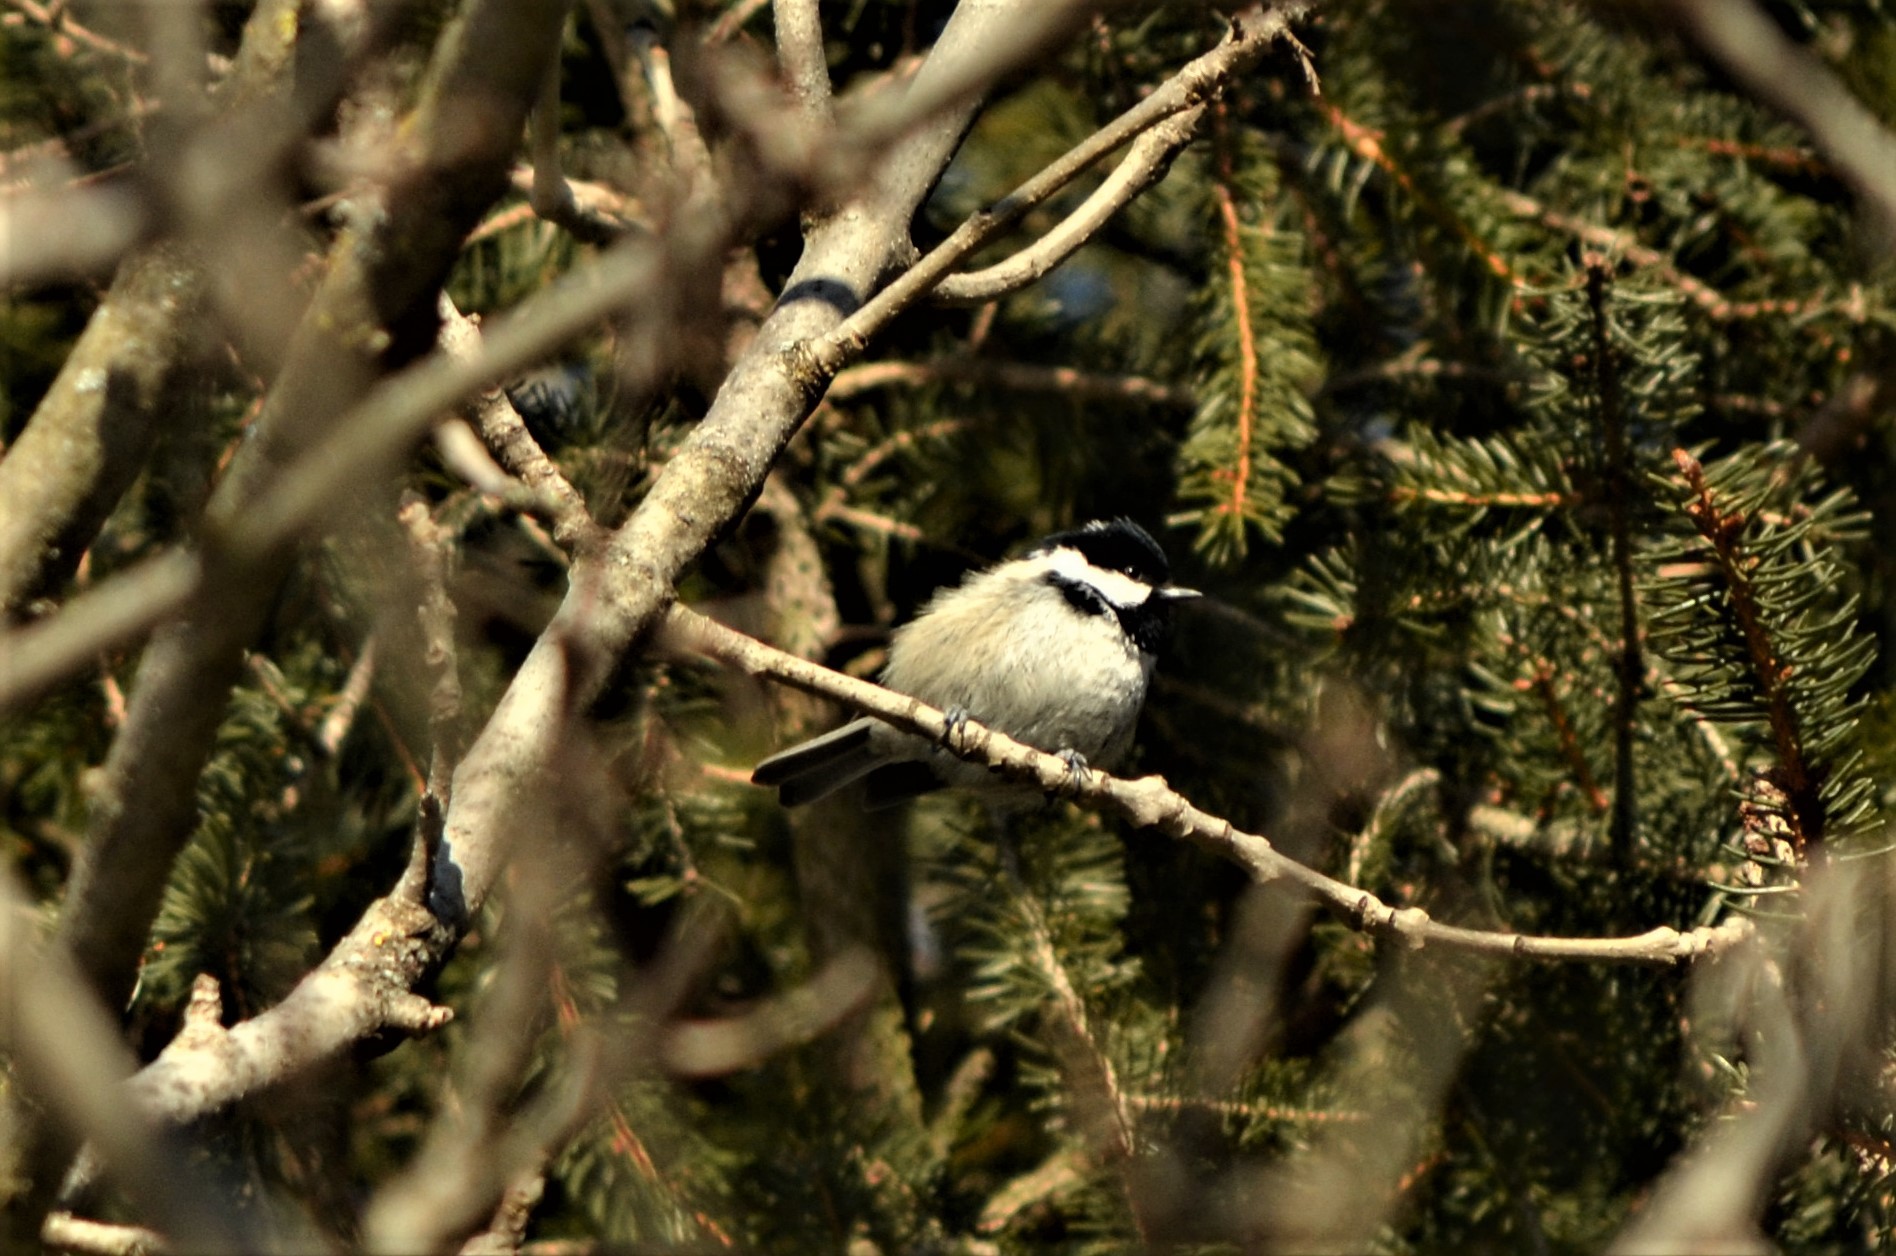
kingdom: Animalia
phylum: Chordata
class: Aves
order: Passeriformes
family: Paridae
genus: Periparus
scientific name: Periparus ater
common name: Coal tit
